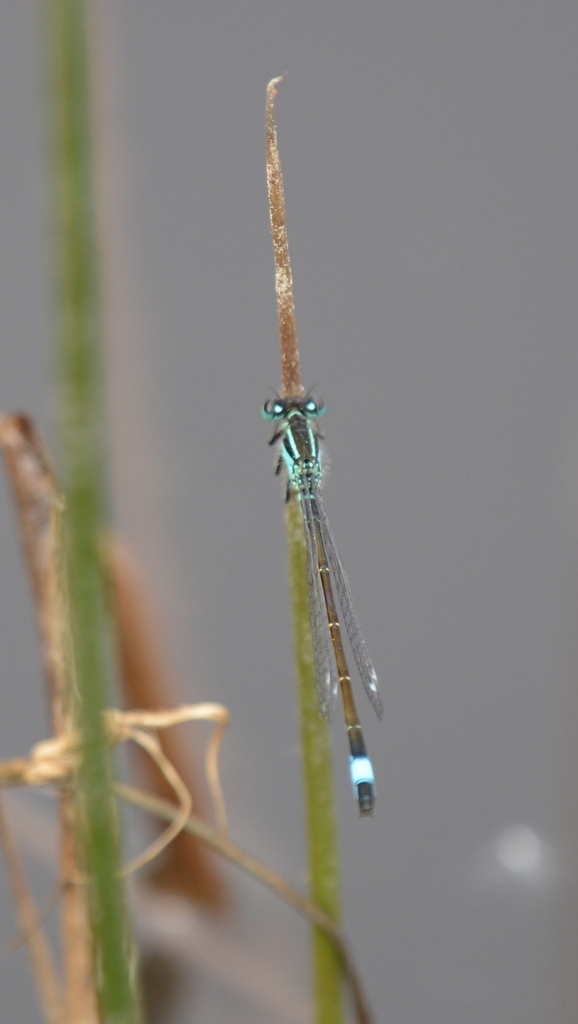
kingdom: Animalia
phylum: Arthropoda
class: Insecta
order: Odonata
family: Coenagrionidae
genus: Ischnura
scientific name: Ischnura elegans
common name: Blue-tailed damselfly
